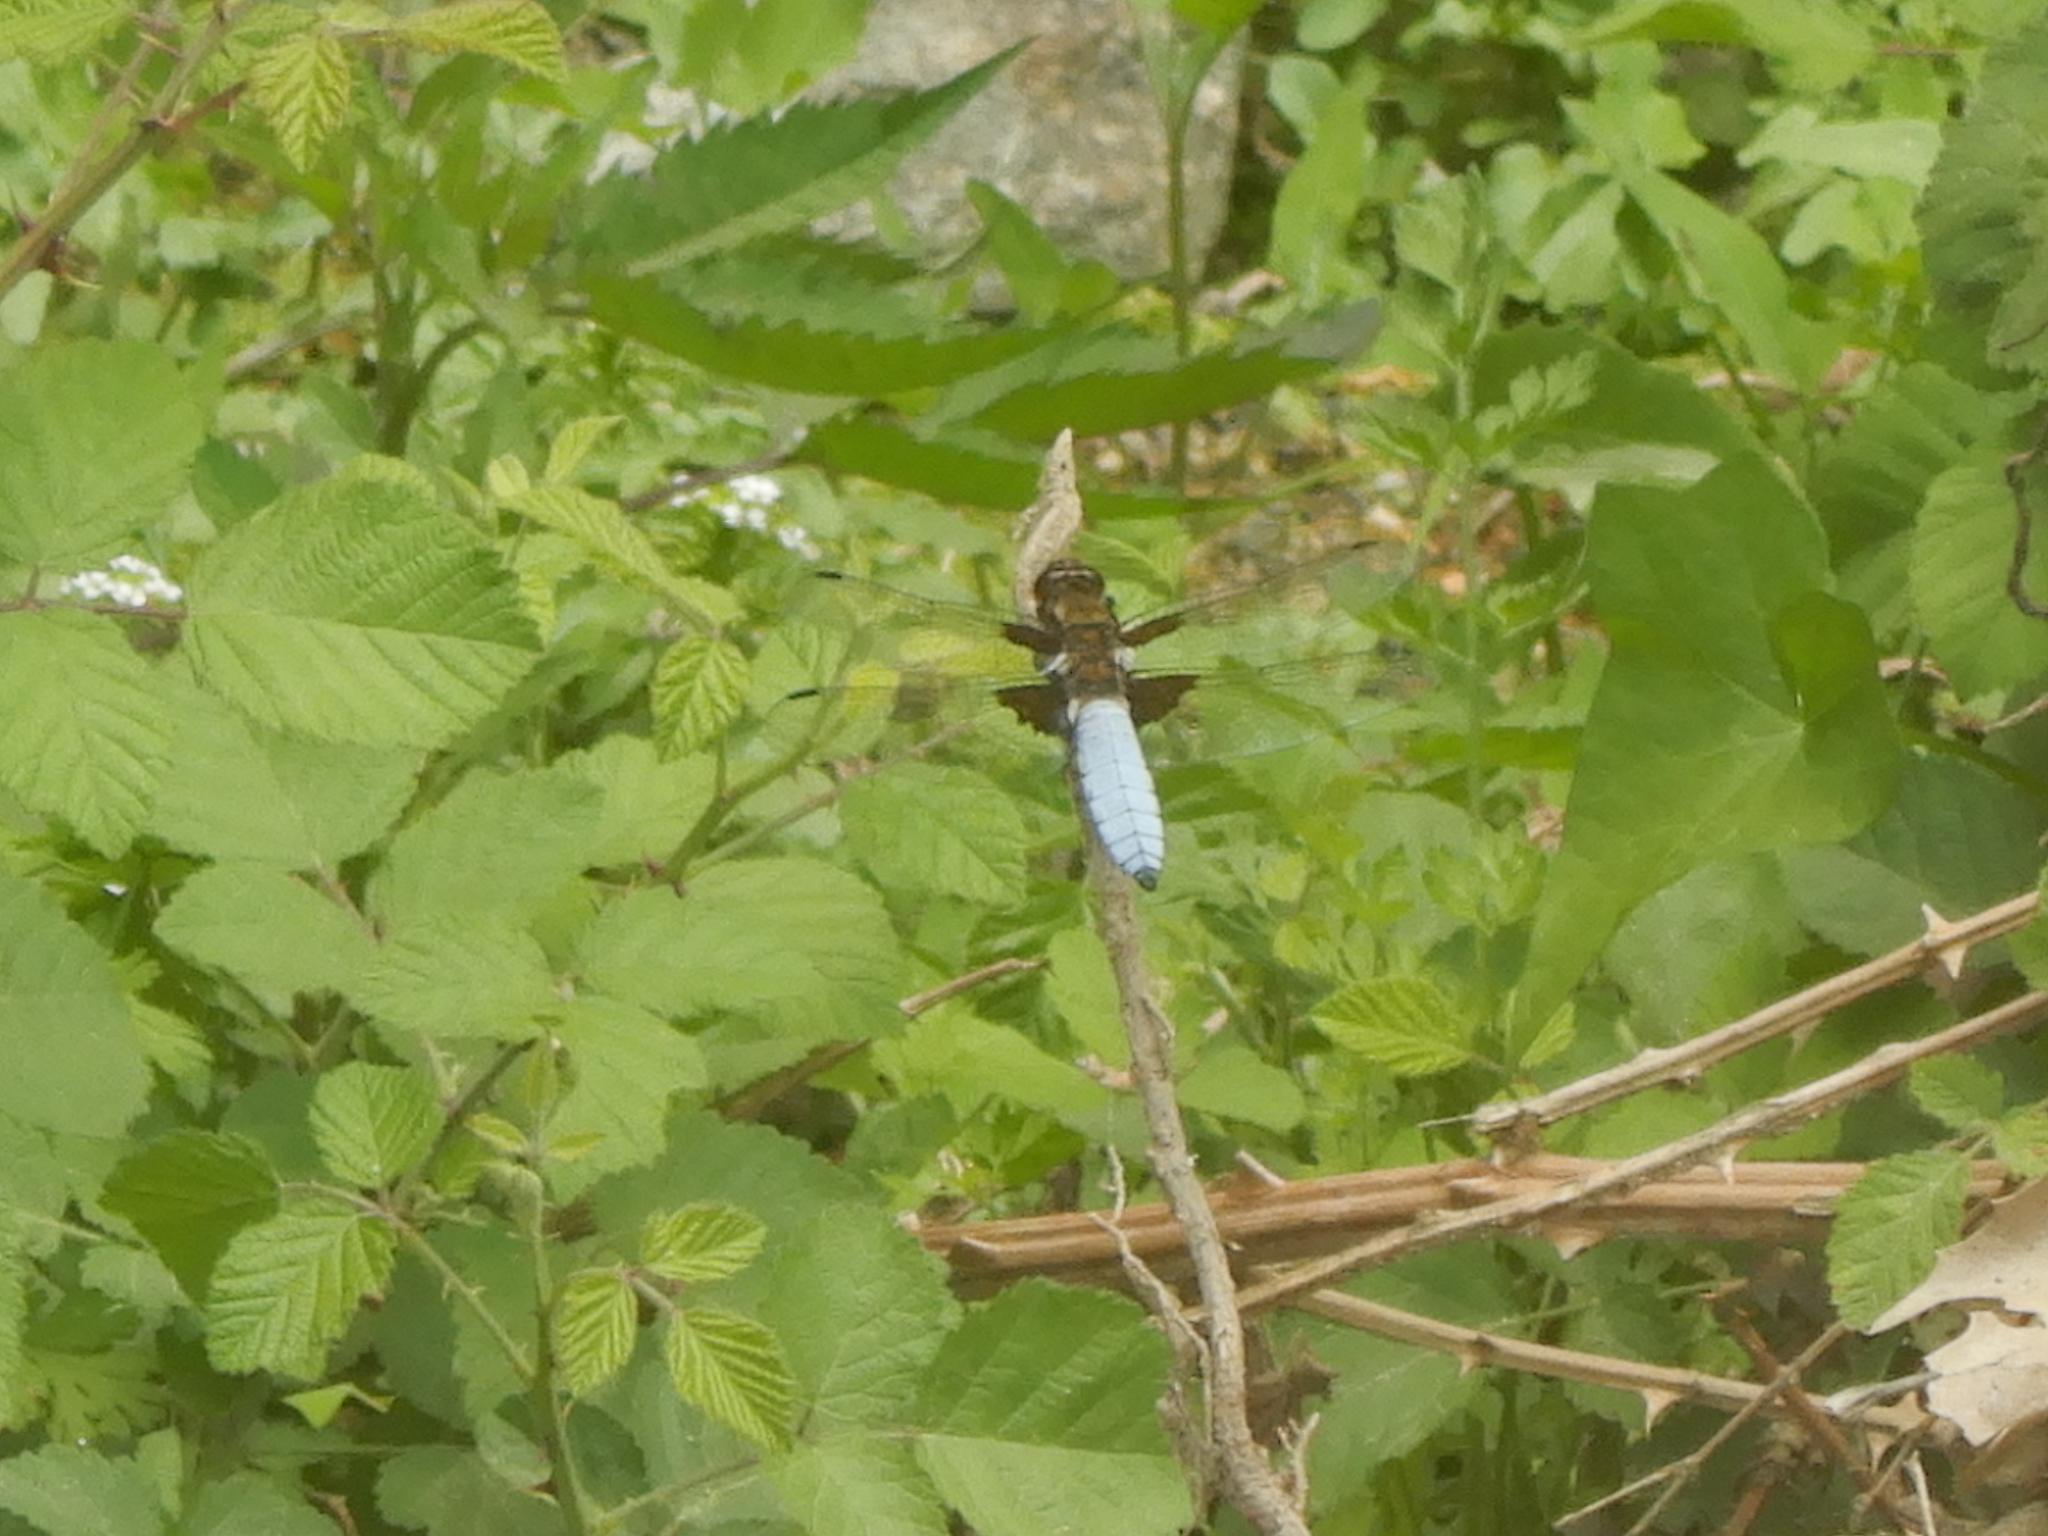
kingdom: Animalia
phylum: Arthropoda
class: Insecta
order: Odonata
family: Libellulidae
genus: Libellula
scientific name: Libellula depressa
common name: Broad-bodied chaser
